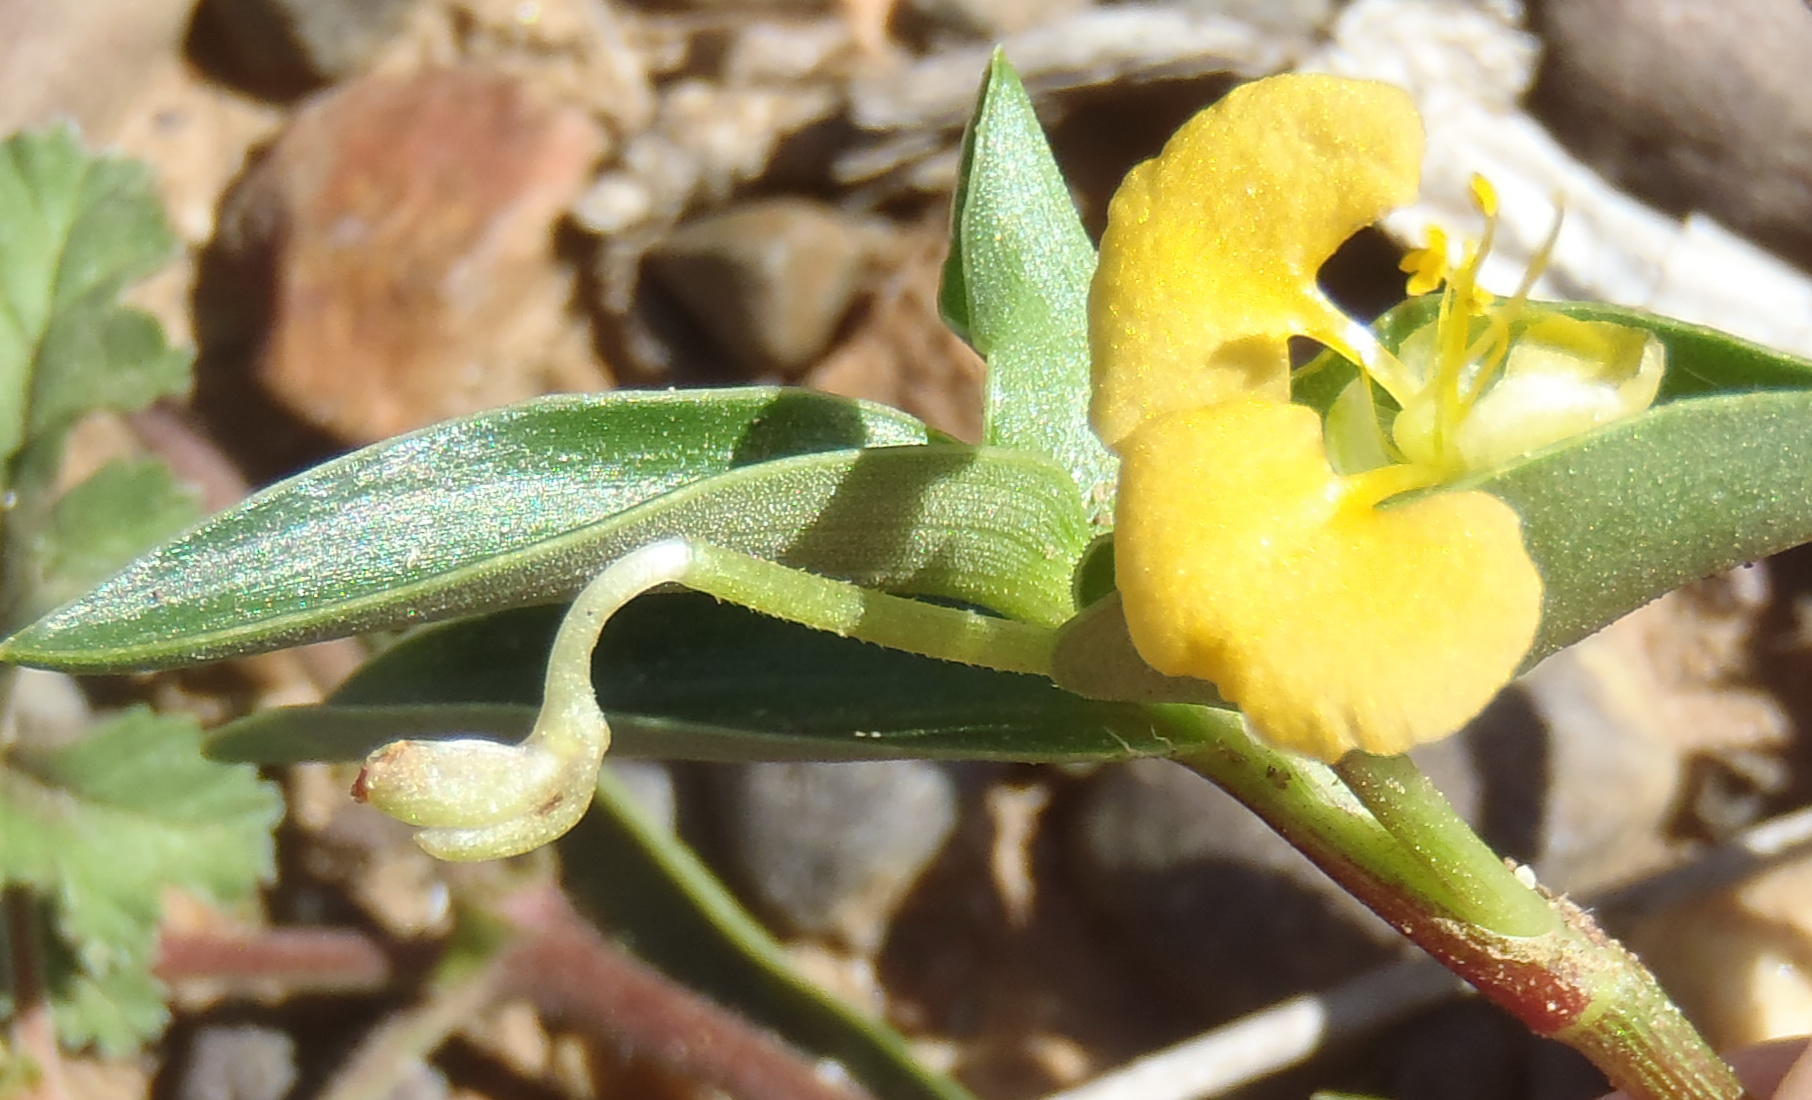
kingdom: Plantae
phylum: Tracheophyta
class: Liliopsida
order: Commelinales
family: Commelinaceae
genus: Commelina
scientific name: Commelina africana
